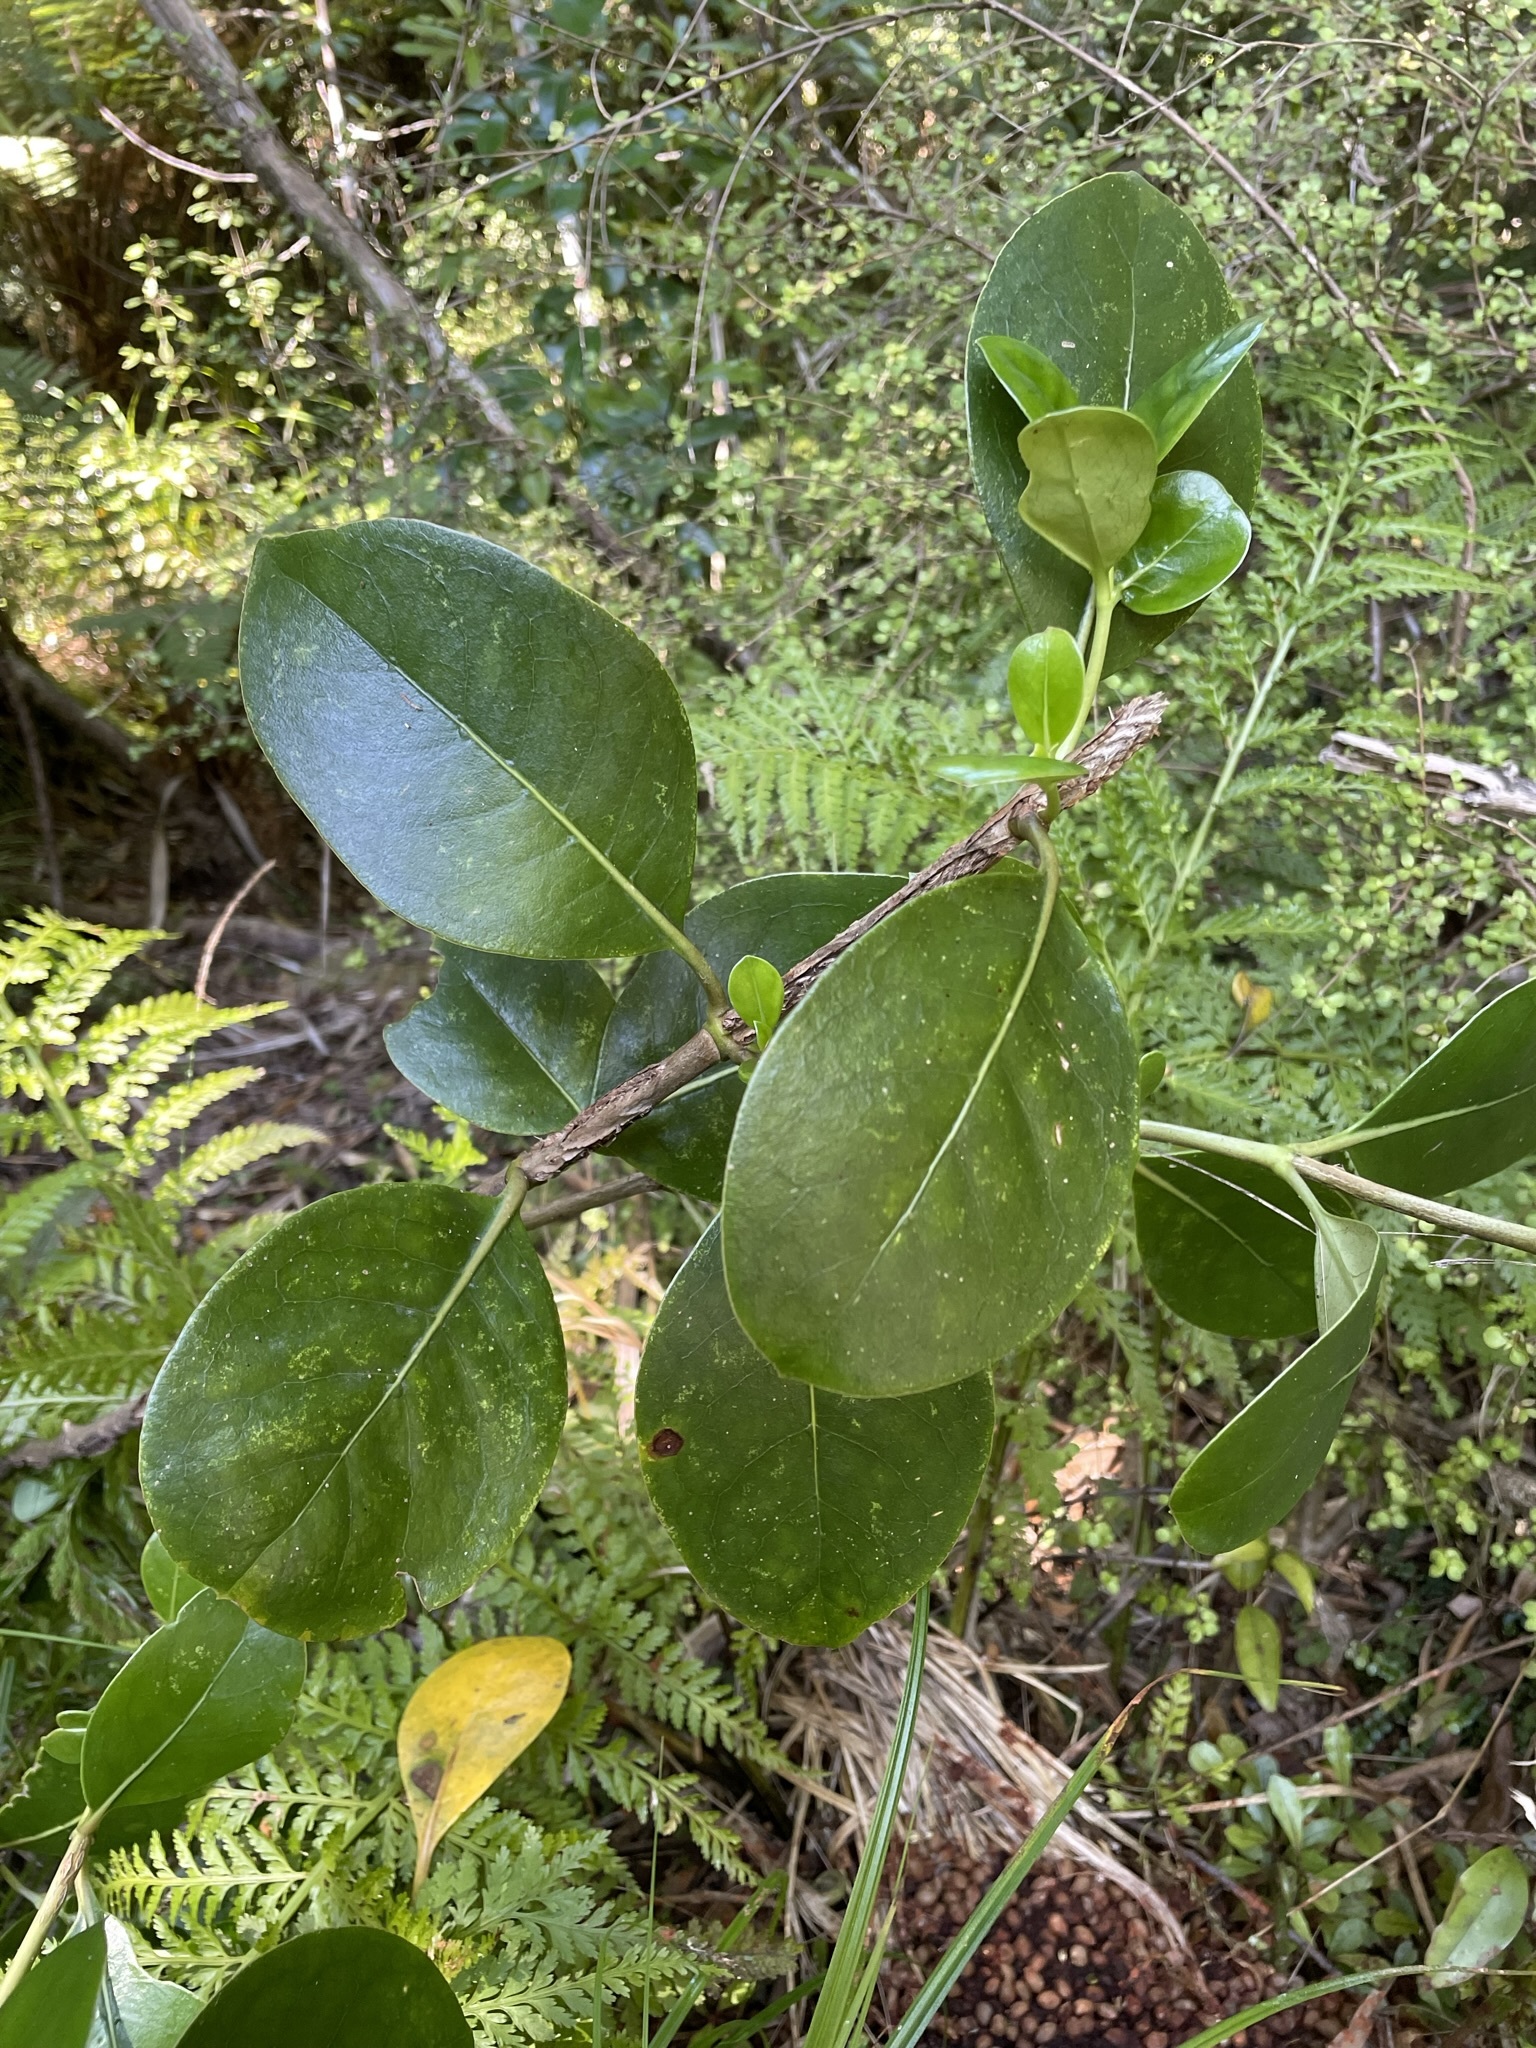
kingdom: Plantae
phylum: Tracheophyta
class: Magnoliopsida
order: Gentianales
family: Rubiaceae
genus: Coprosma
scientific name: Coprosma lucida
